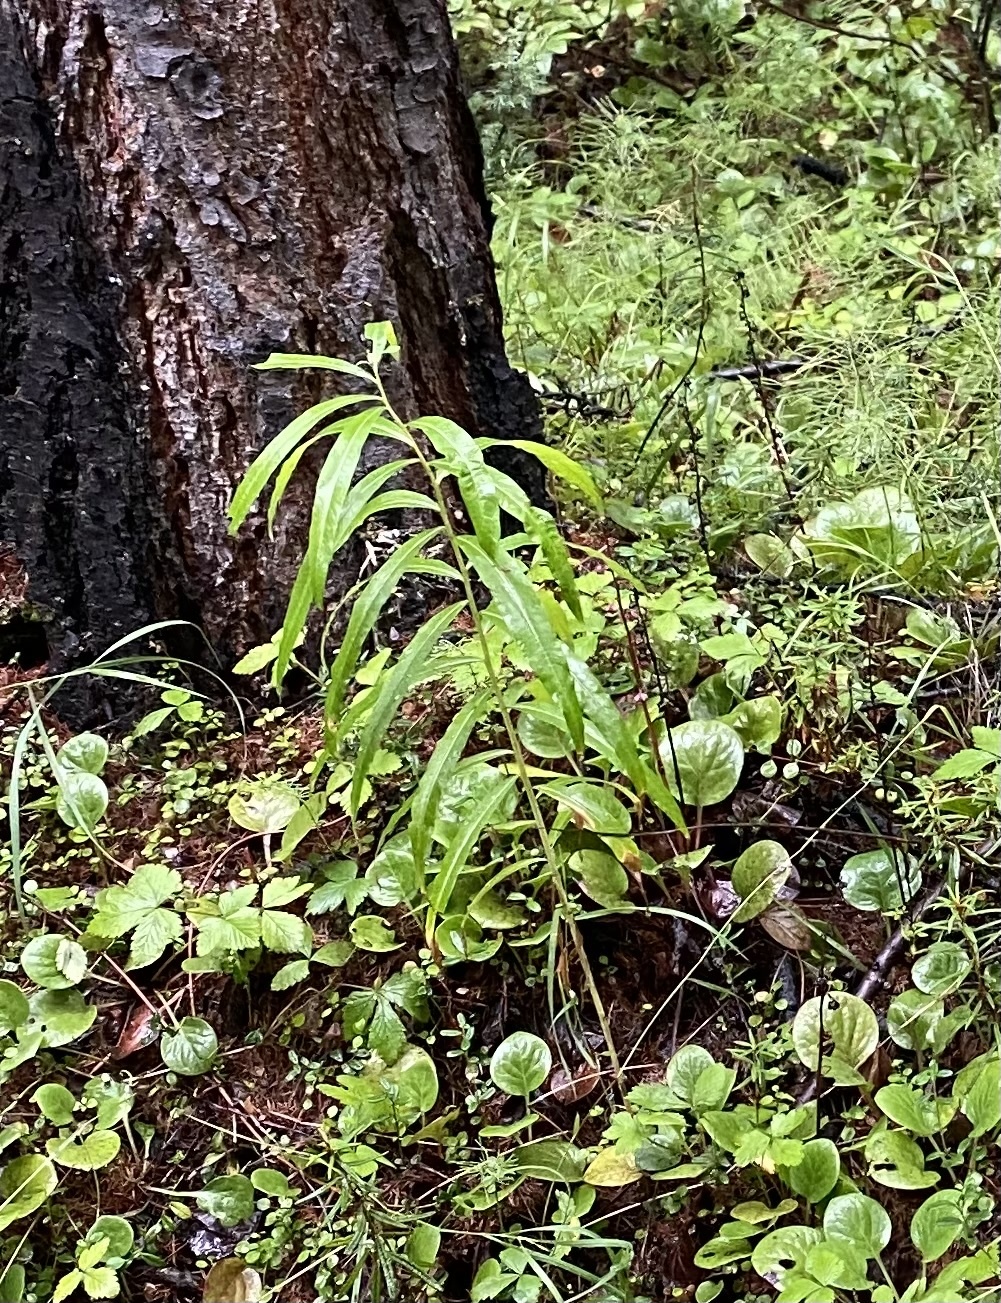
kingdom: Plantae
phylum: Tracheophyta
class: Magnoliopsida
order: Myrtales
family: Onagraceae
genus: Chamaenerion
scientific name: Chamaenerion angustifolium
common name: Fireweed
